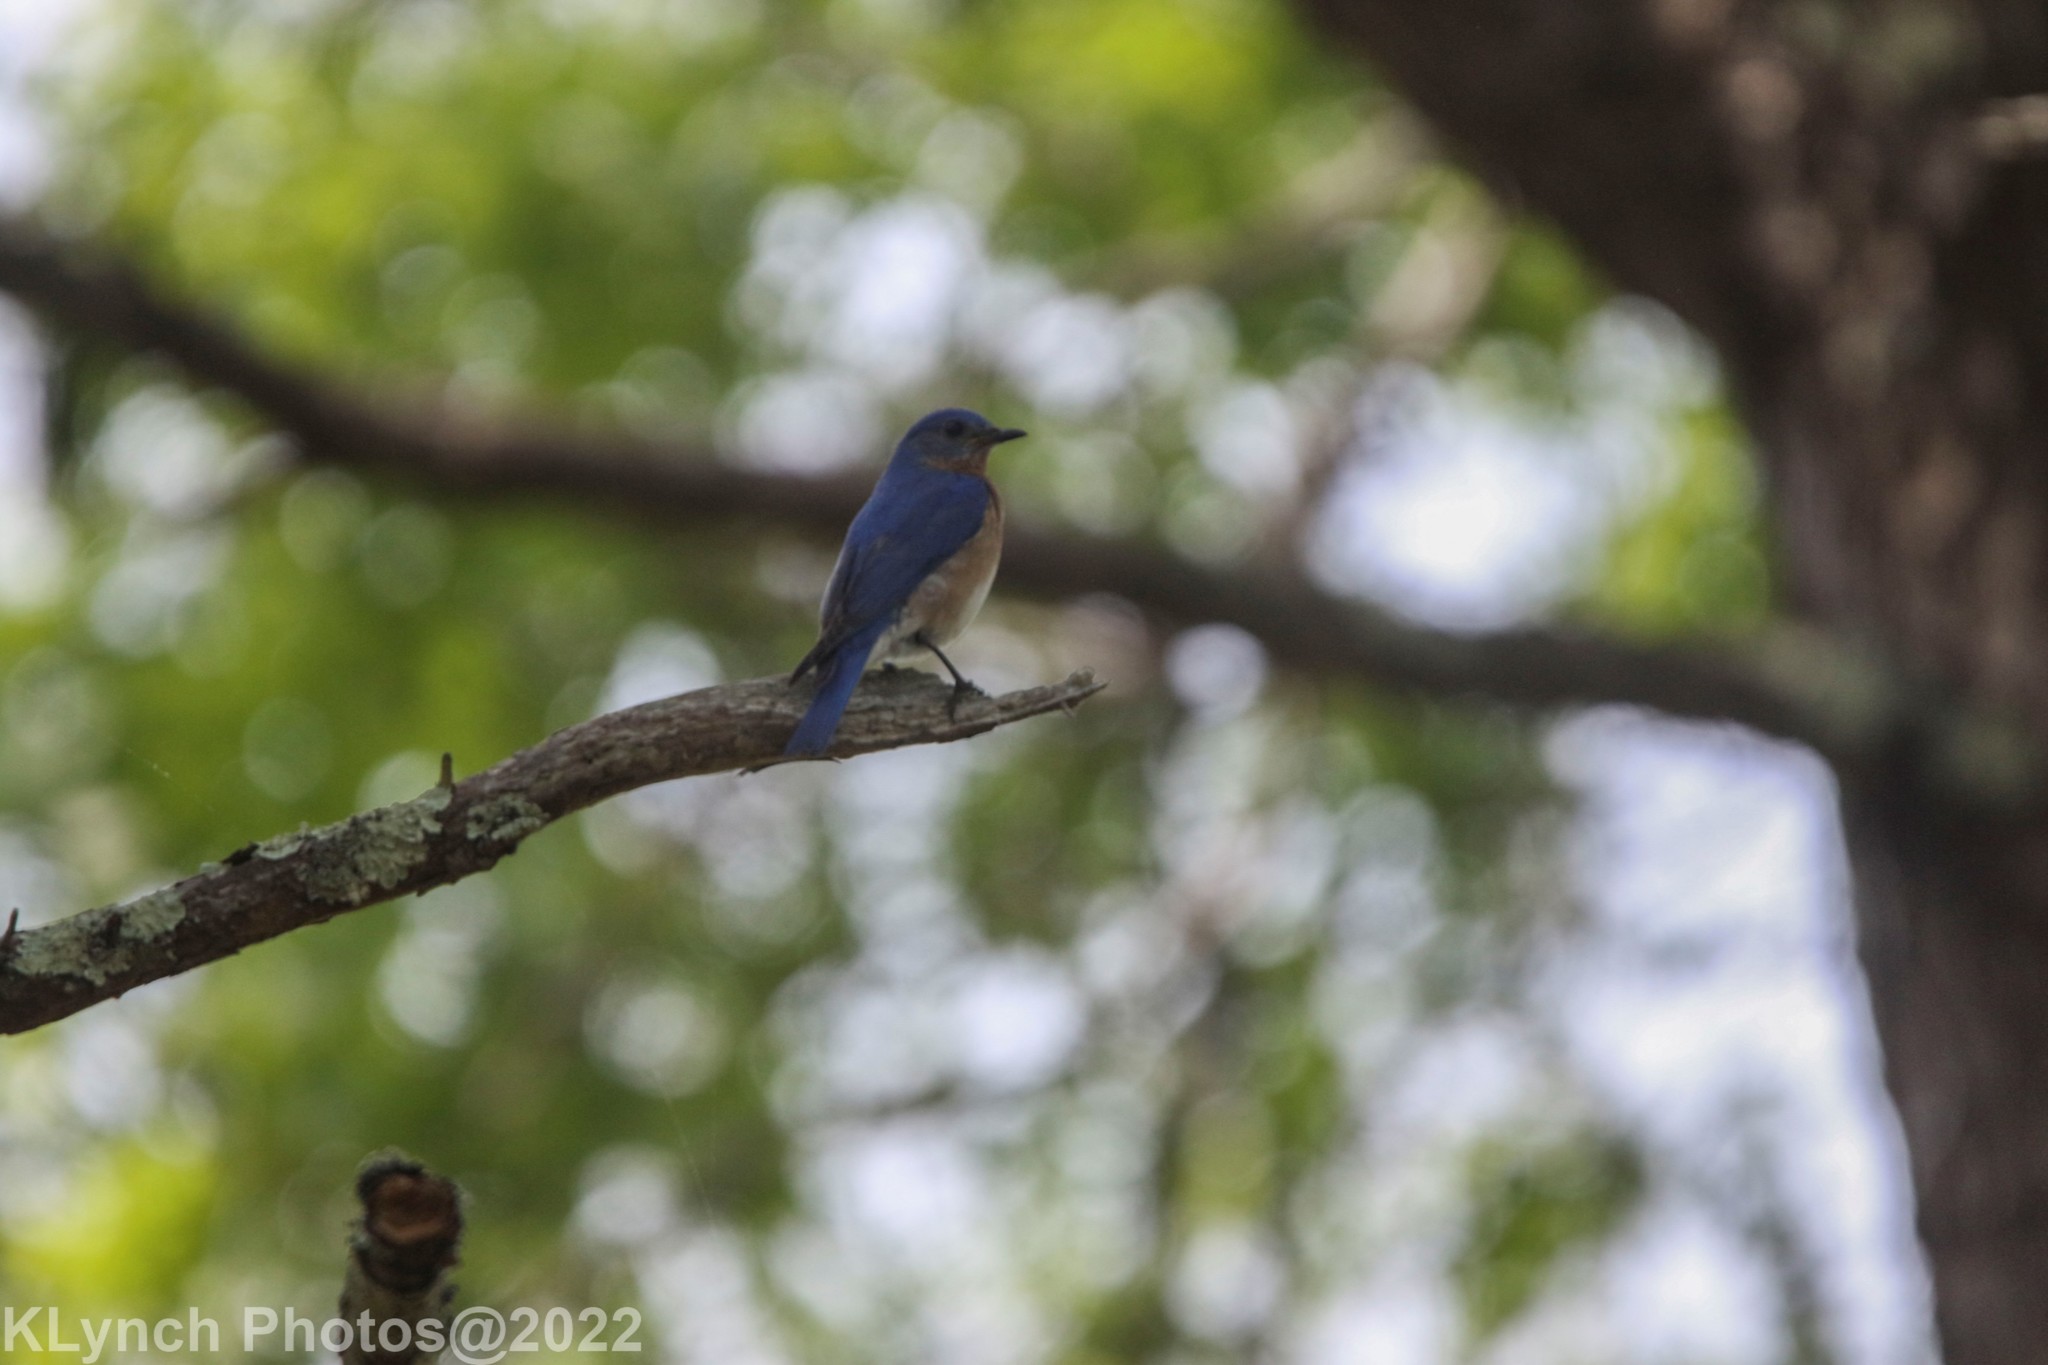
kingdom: Animalia
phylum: Chordata
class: Aves
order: Passeriformes
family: Turdidae
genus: Sialia
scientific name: Sialia sialis
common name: Eastern bluebird
